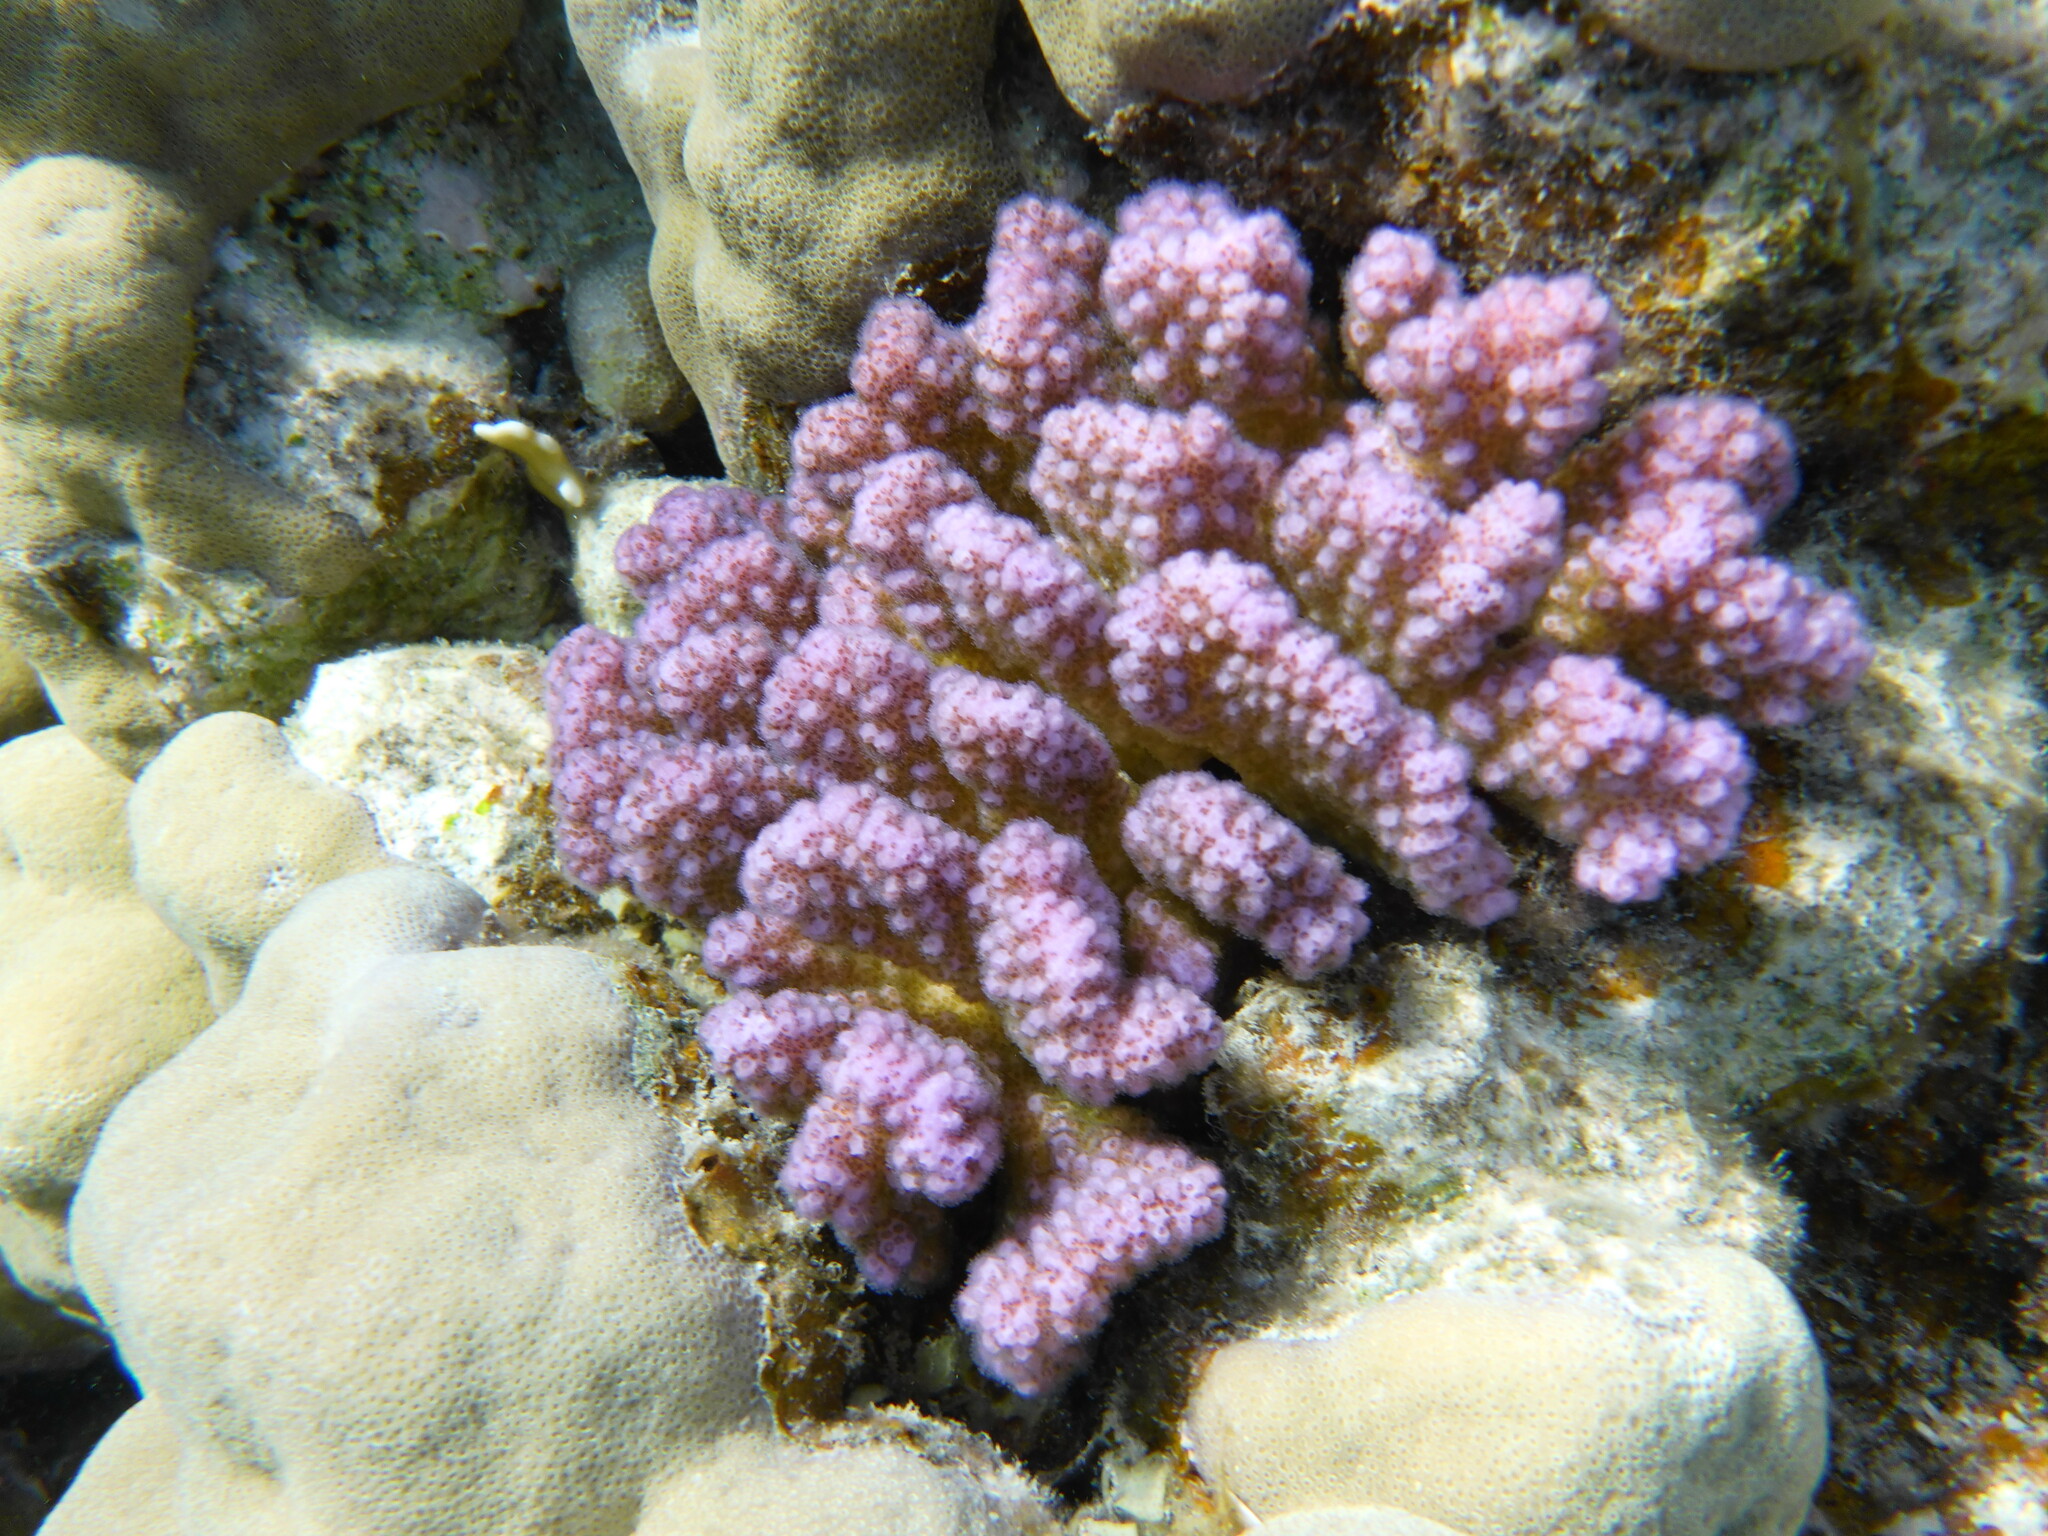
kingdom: Animalia
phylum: Cnidaria
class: Anthozoa
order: Scleractinia
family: Pocilloporidae
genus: Pocillopora
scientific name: Pocillopora verrucosa
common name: Cauliflower coral
